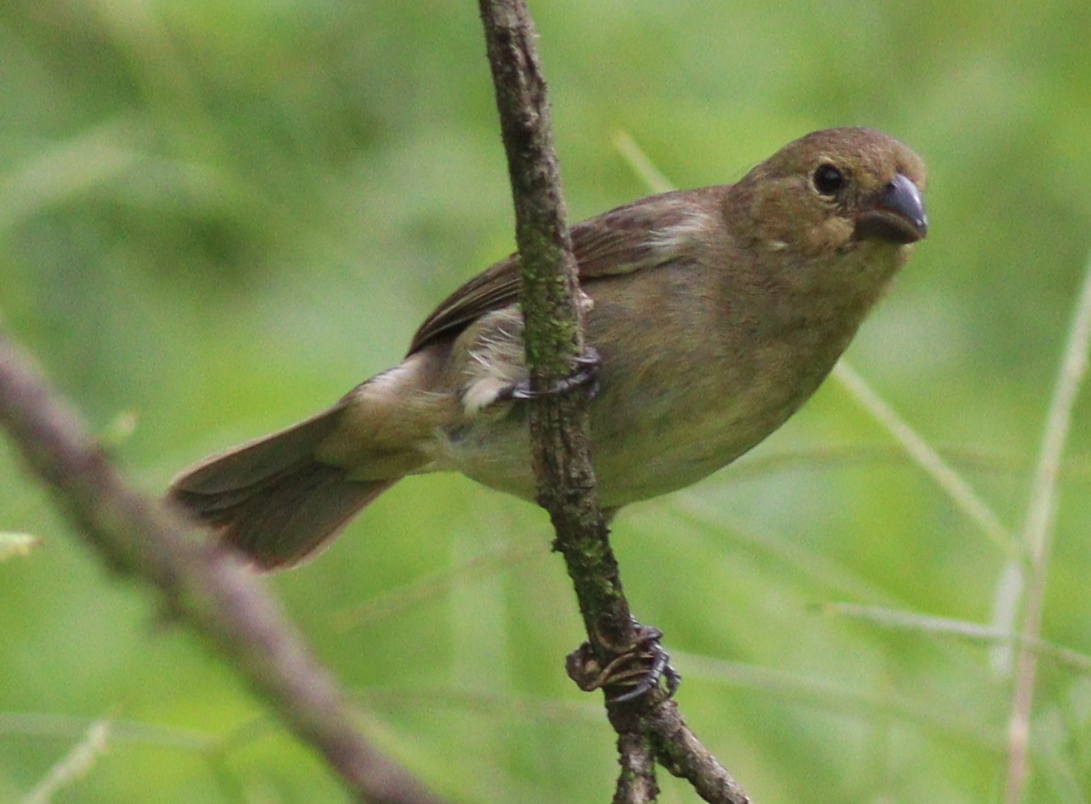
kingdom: Animalia
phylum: Chordata
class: Aves
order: Passeriformes
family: Thraupidae
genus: Sporophila
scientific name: Sporophila corvina
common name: Variable seedeater
